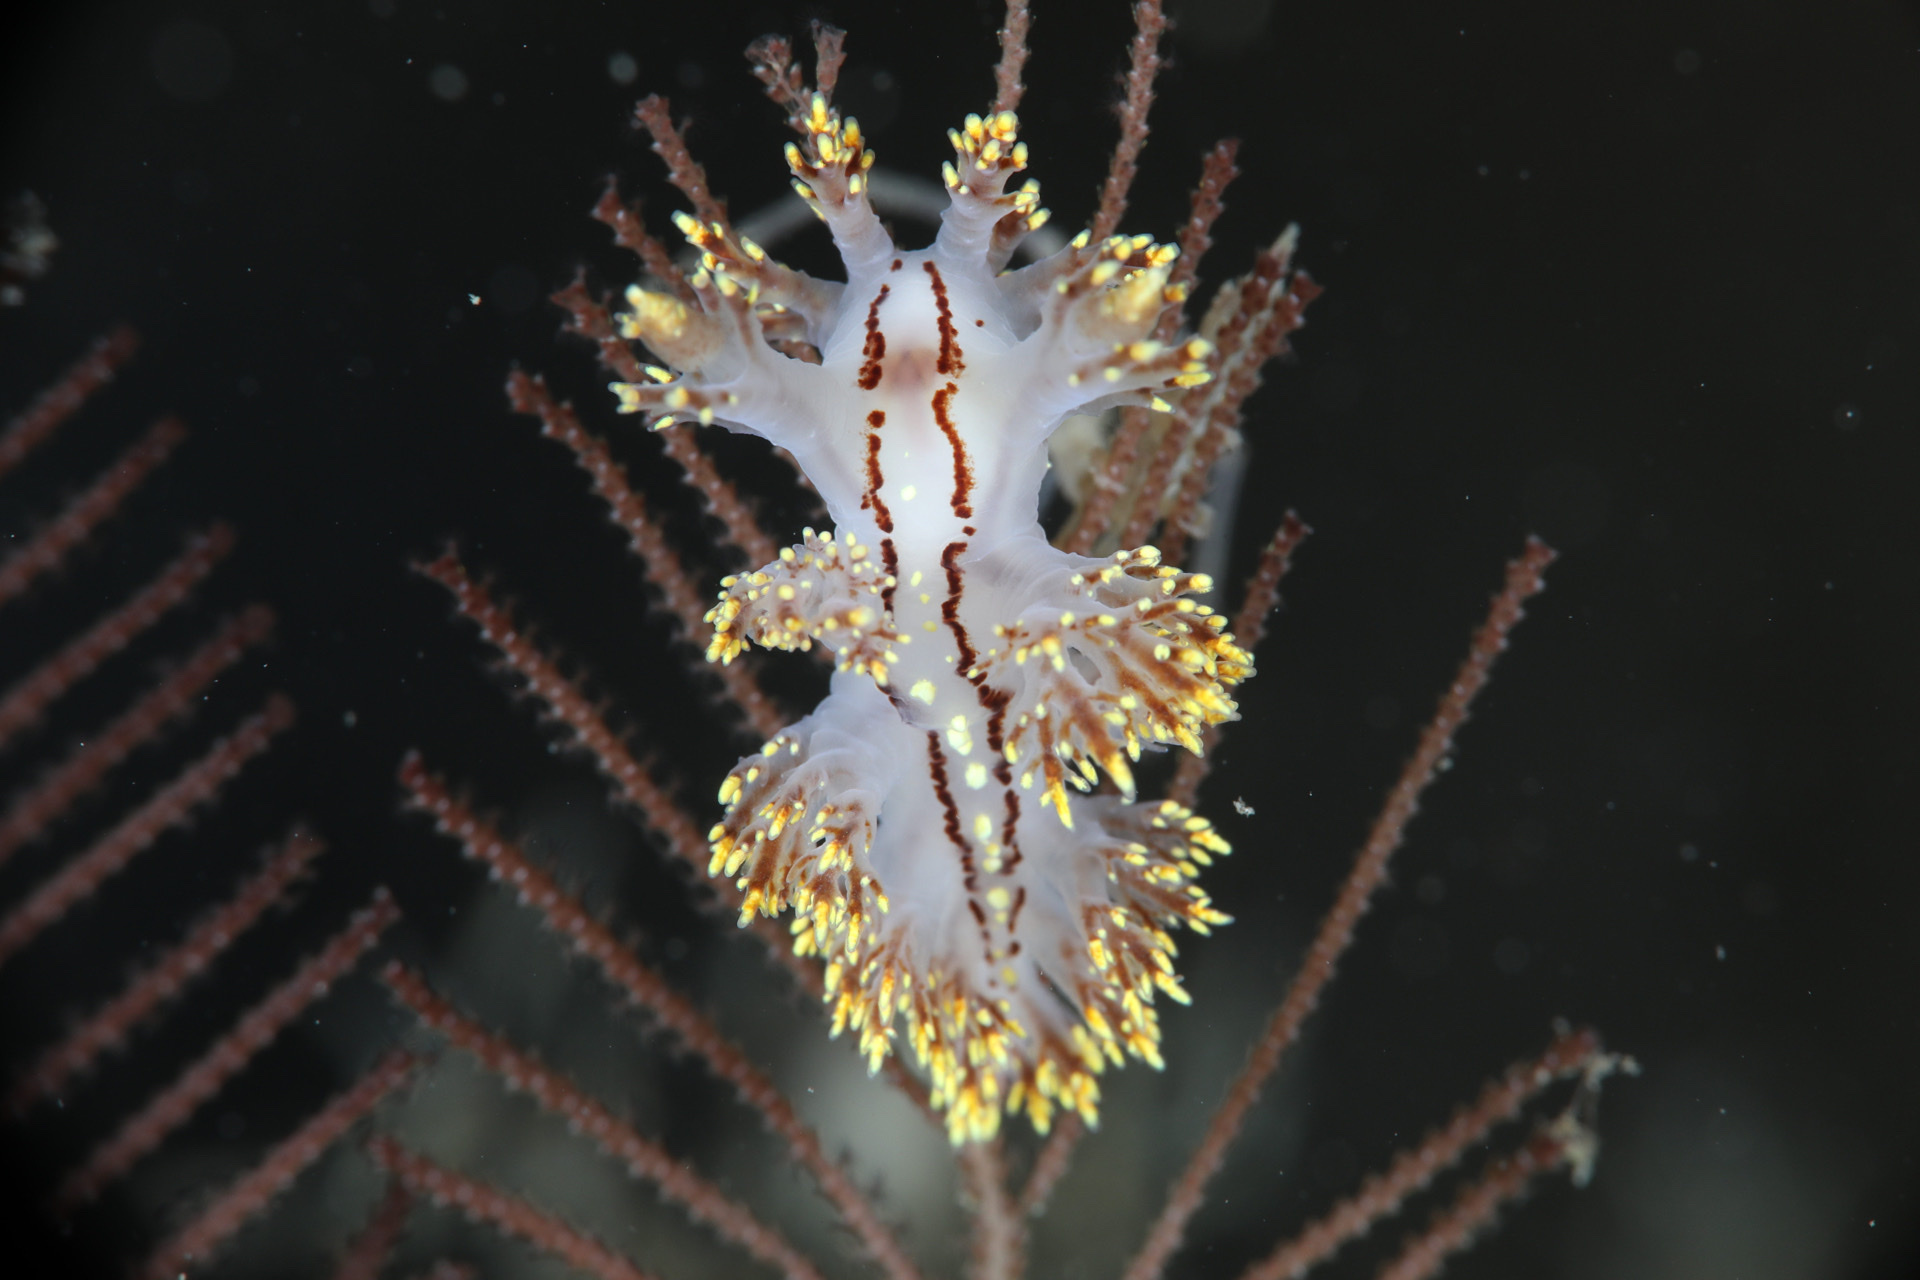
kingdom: Animalia
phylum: Mollusca
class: Gastropoda
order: Nudibranchia
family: Dendronotidae
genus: Dendronotus
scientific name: Dendronotus yrjargul
